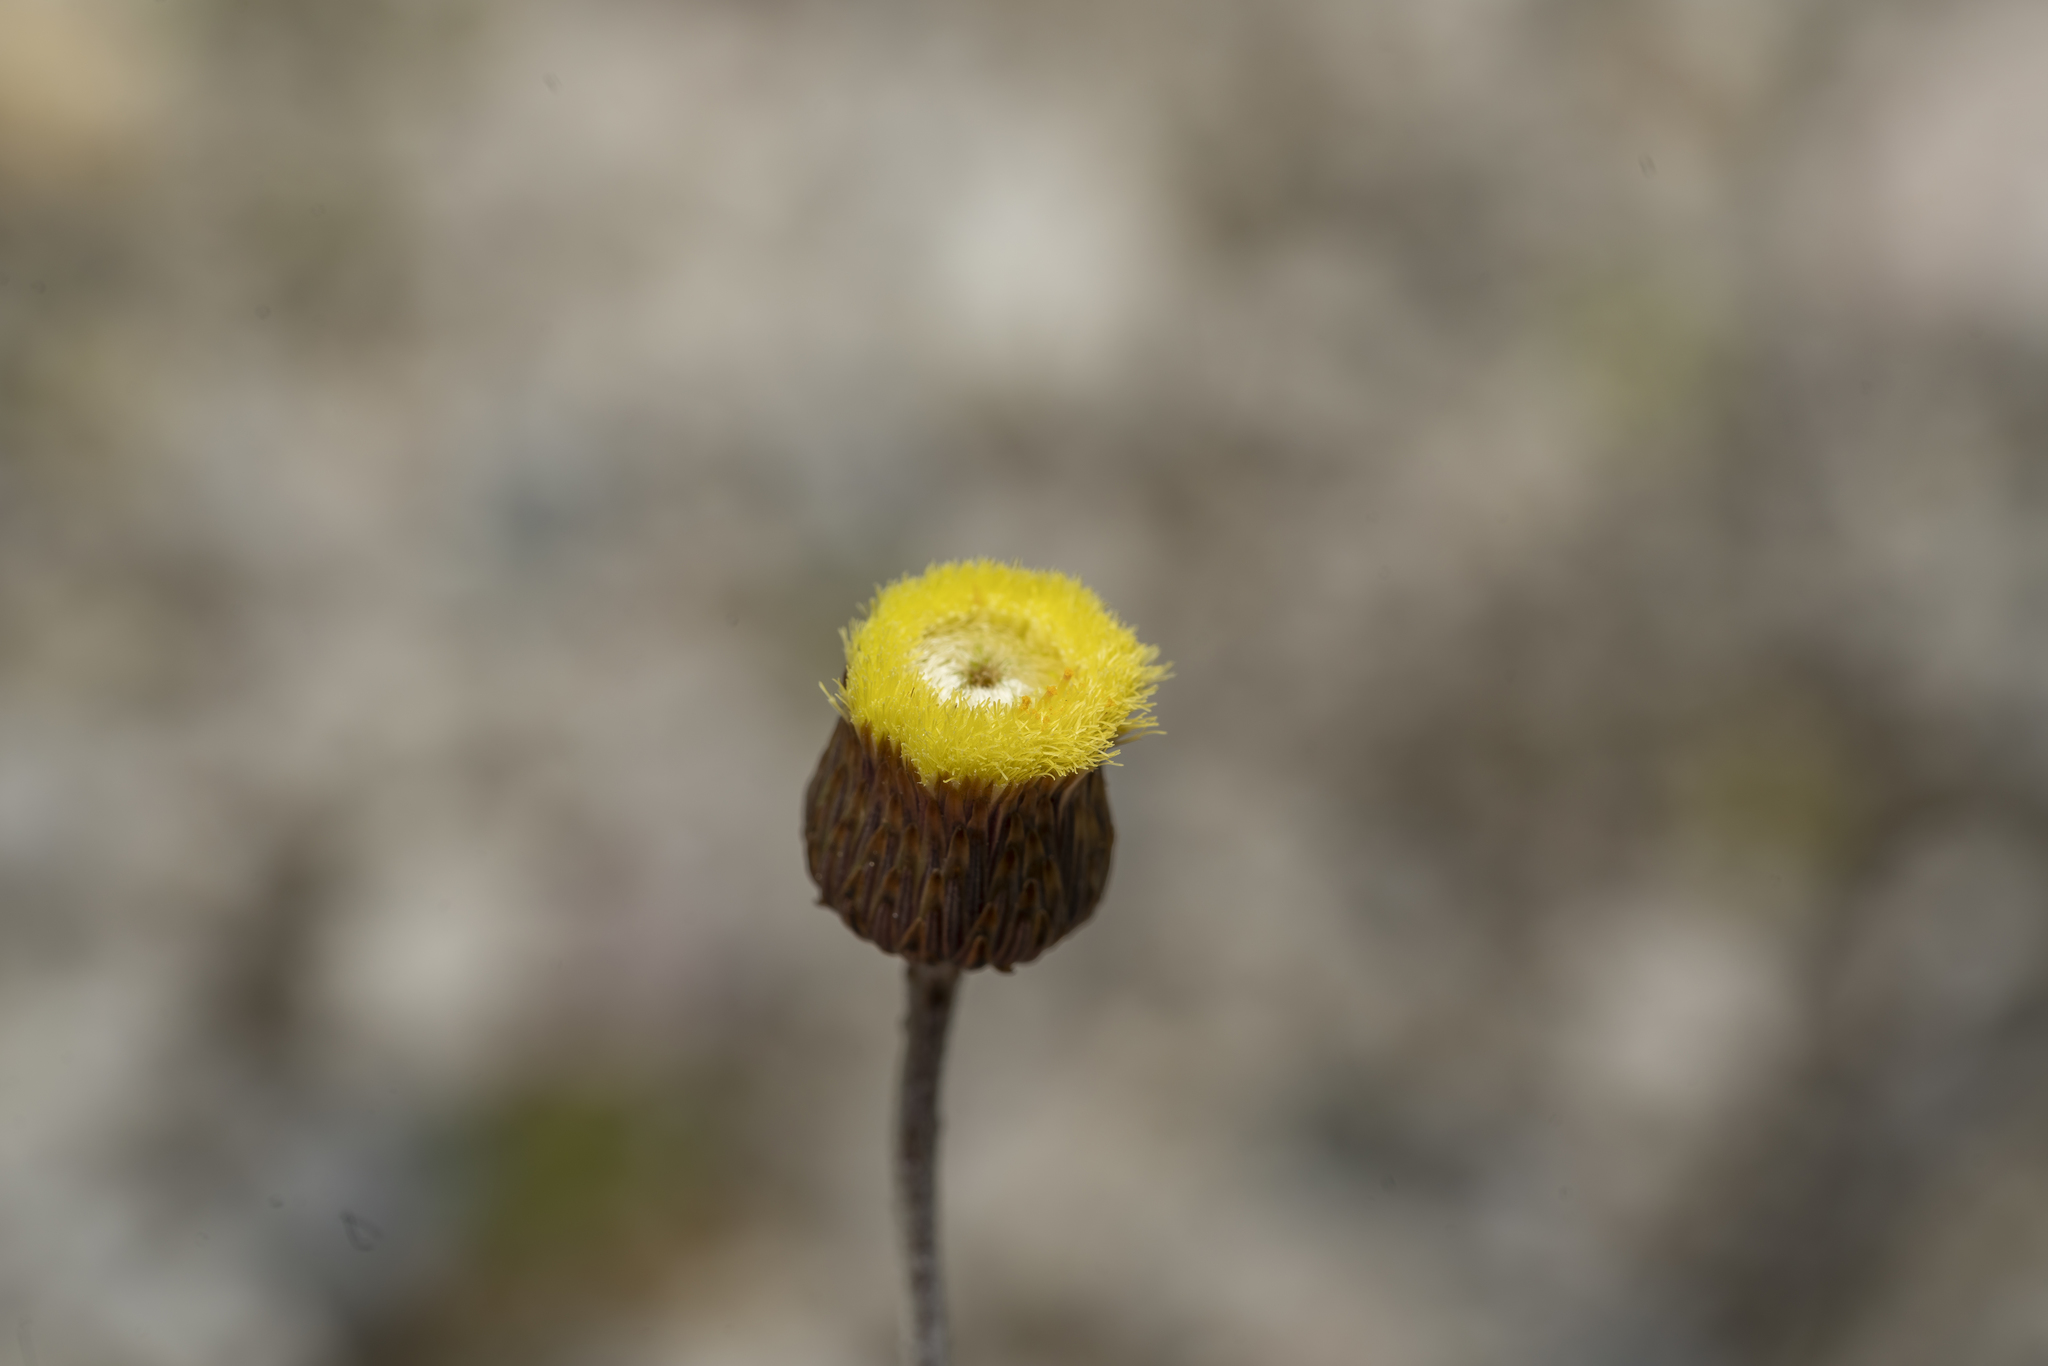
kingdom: Plantae
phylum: Tracheophyta
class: Magnoliopsida
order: Asterales
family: Asteraceae
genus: Phagnalon
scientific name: Phagnalon graecum
